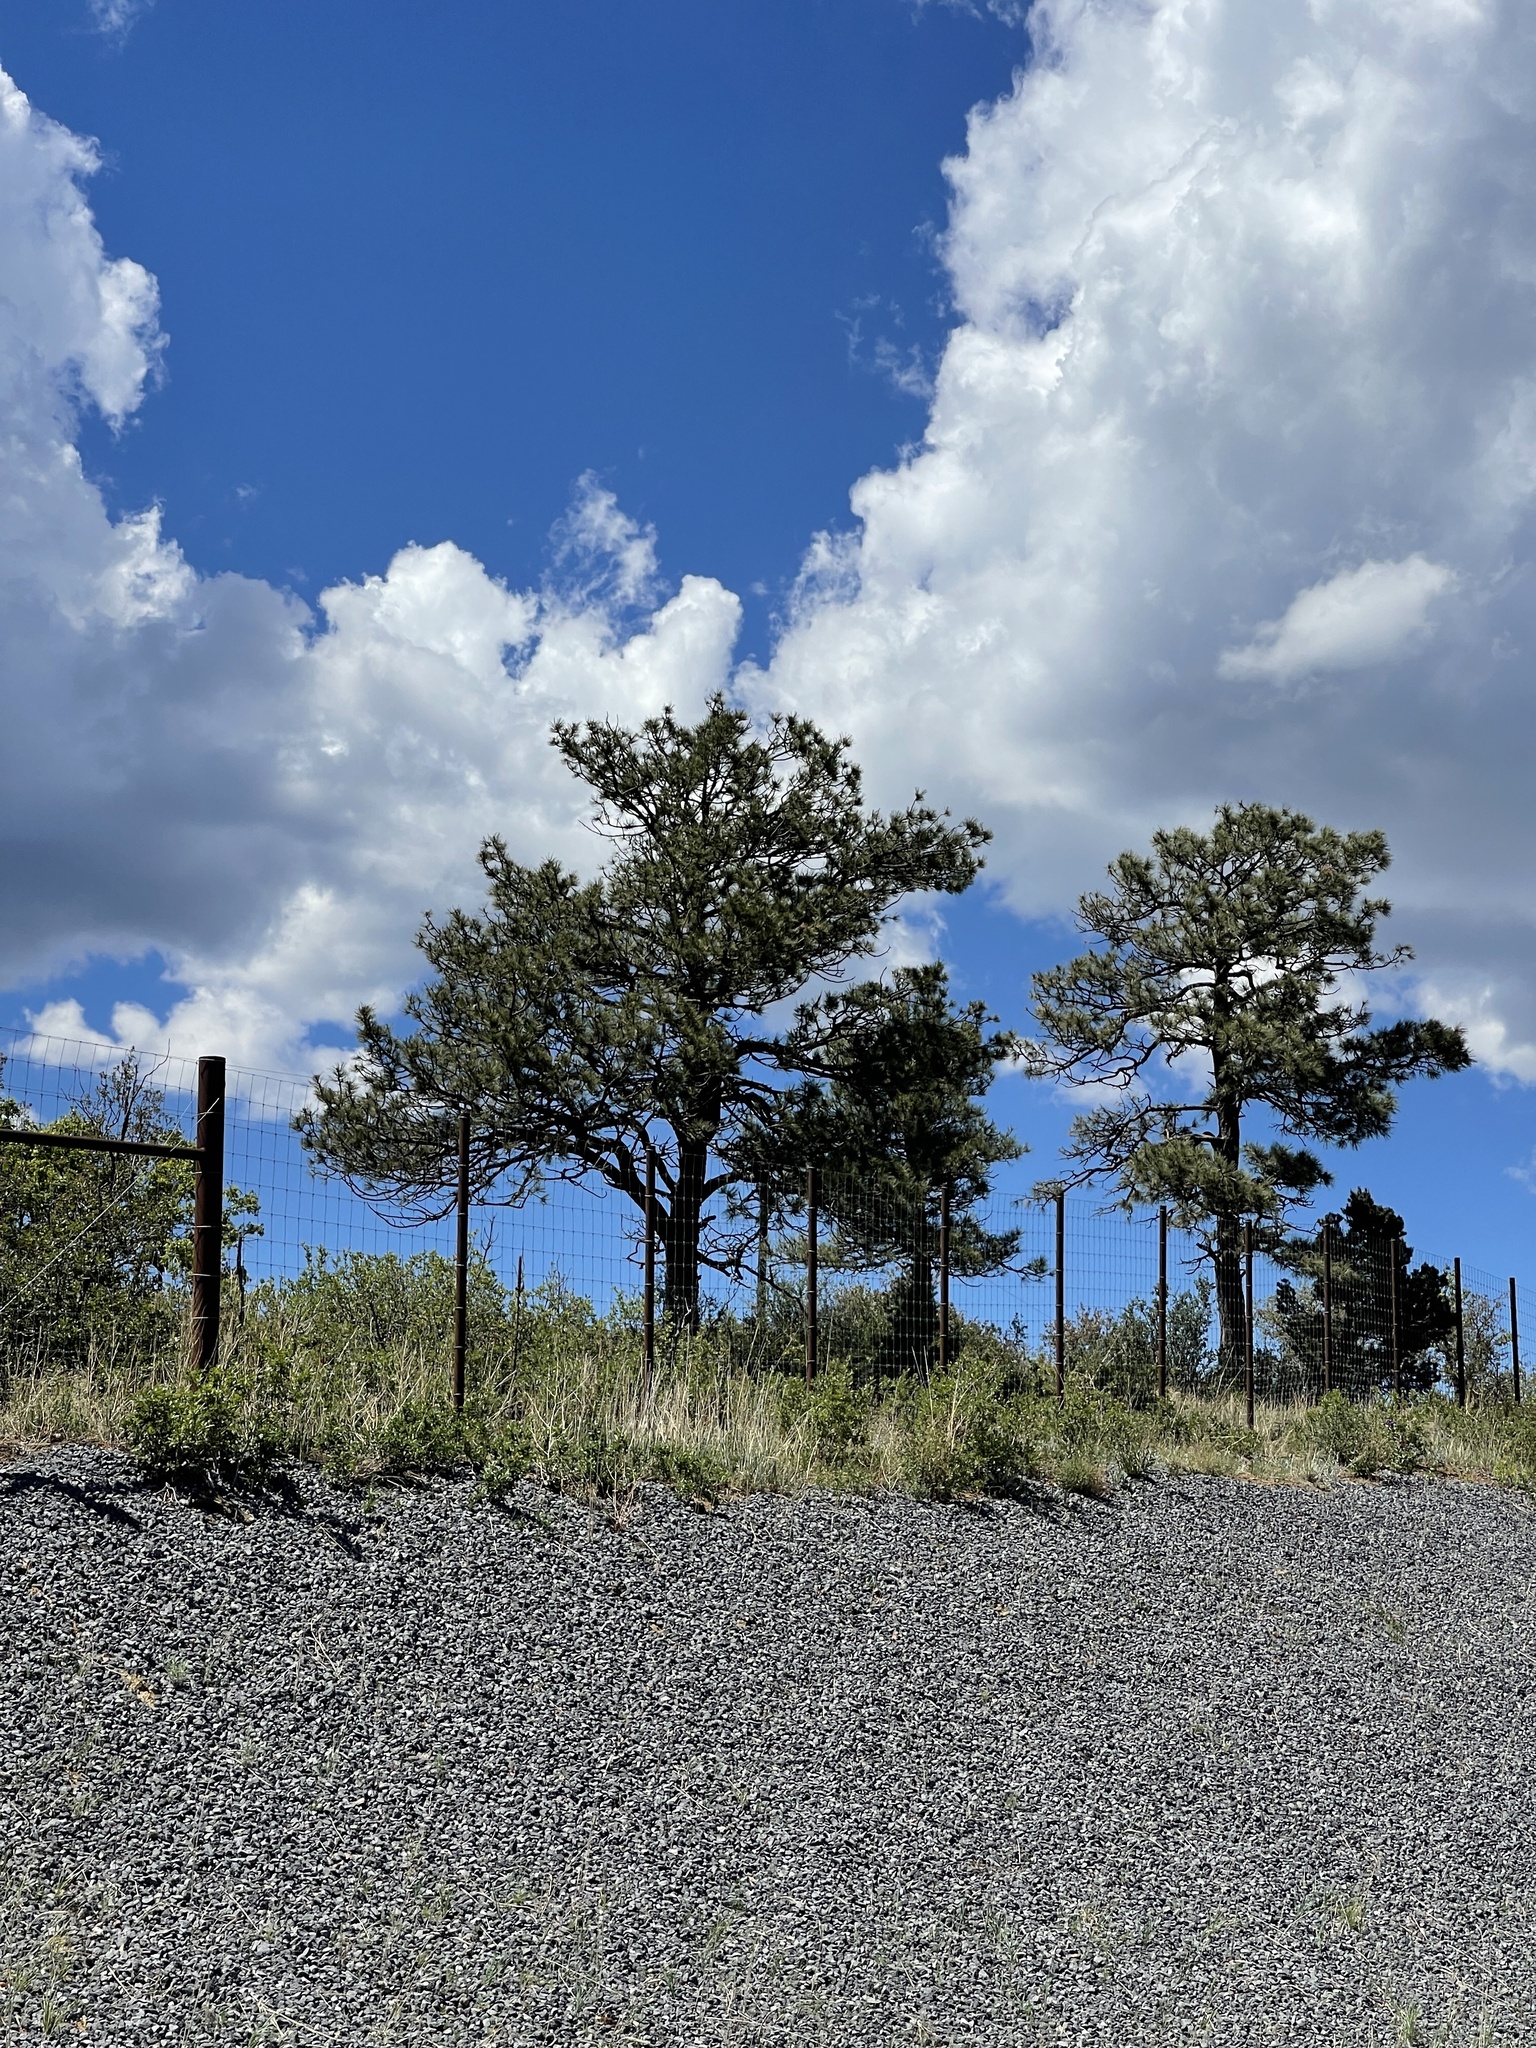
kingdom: Plantae
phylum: Tracheophyta
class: Pinopsida
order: Pinales
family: Pinaceae
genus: Pinus
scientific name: Pinus ponderosa
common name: Western yellow-pine
